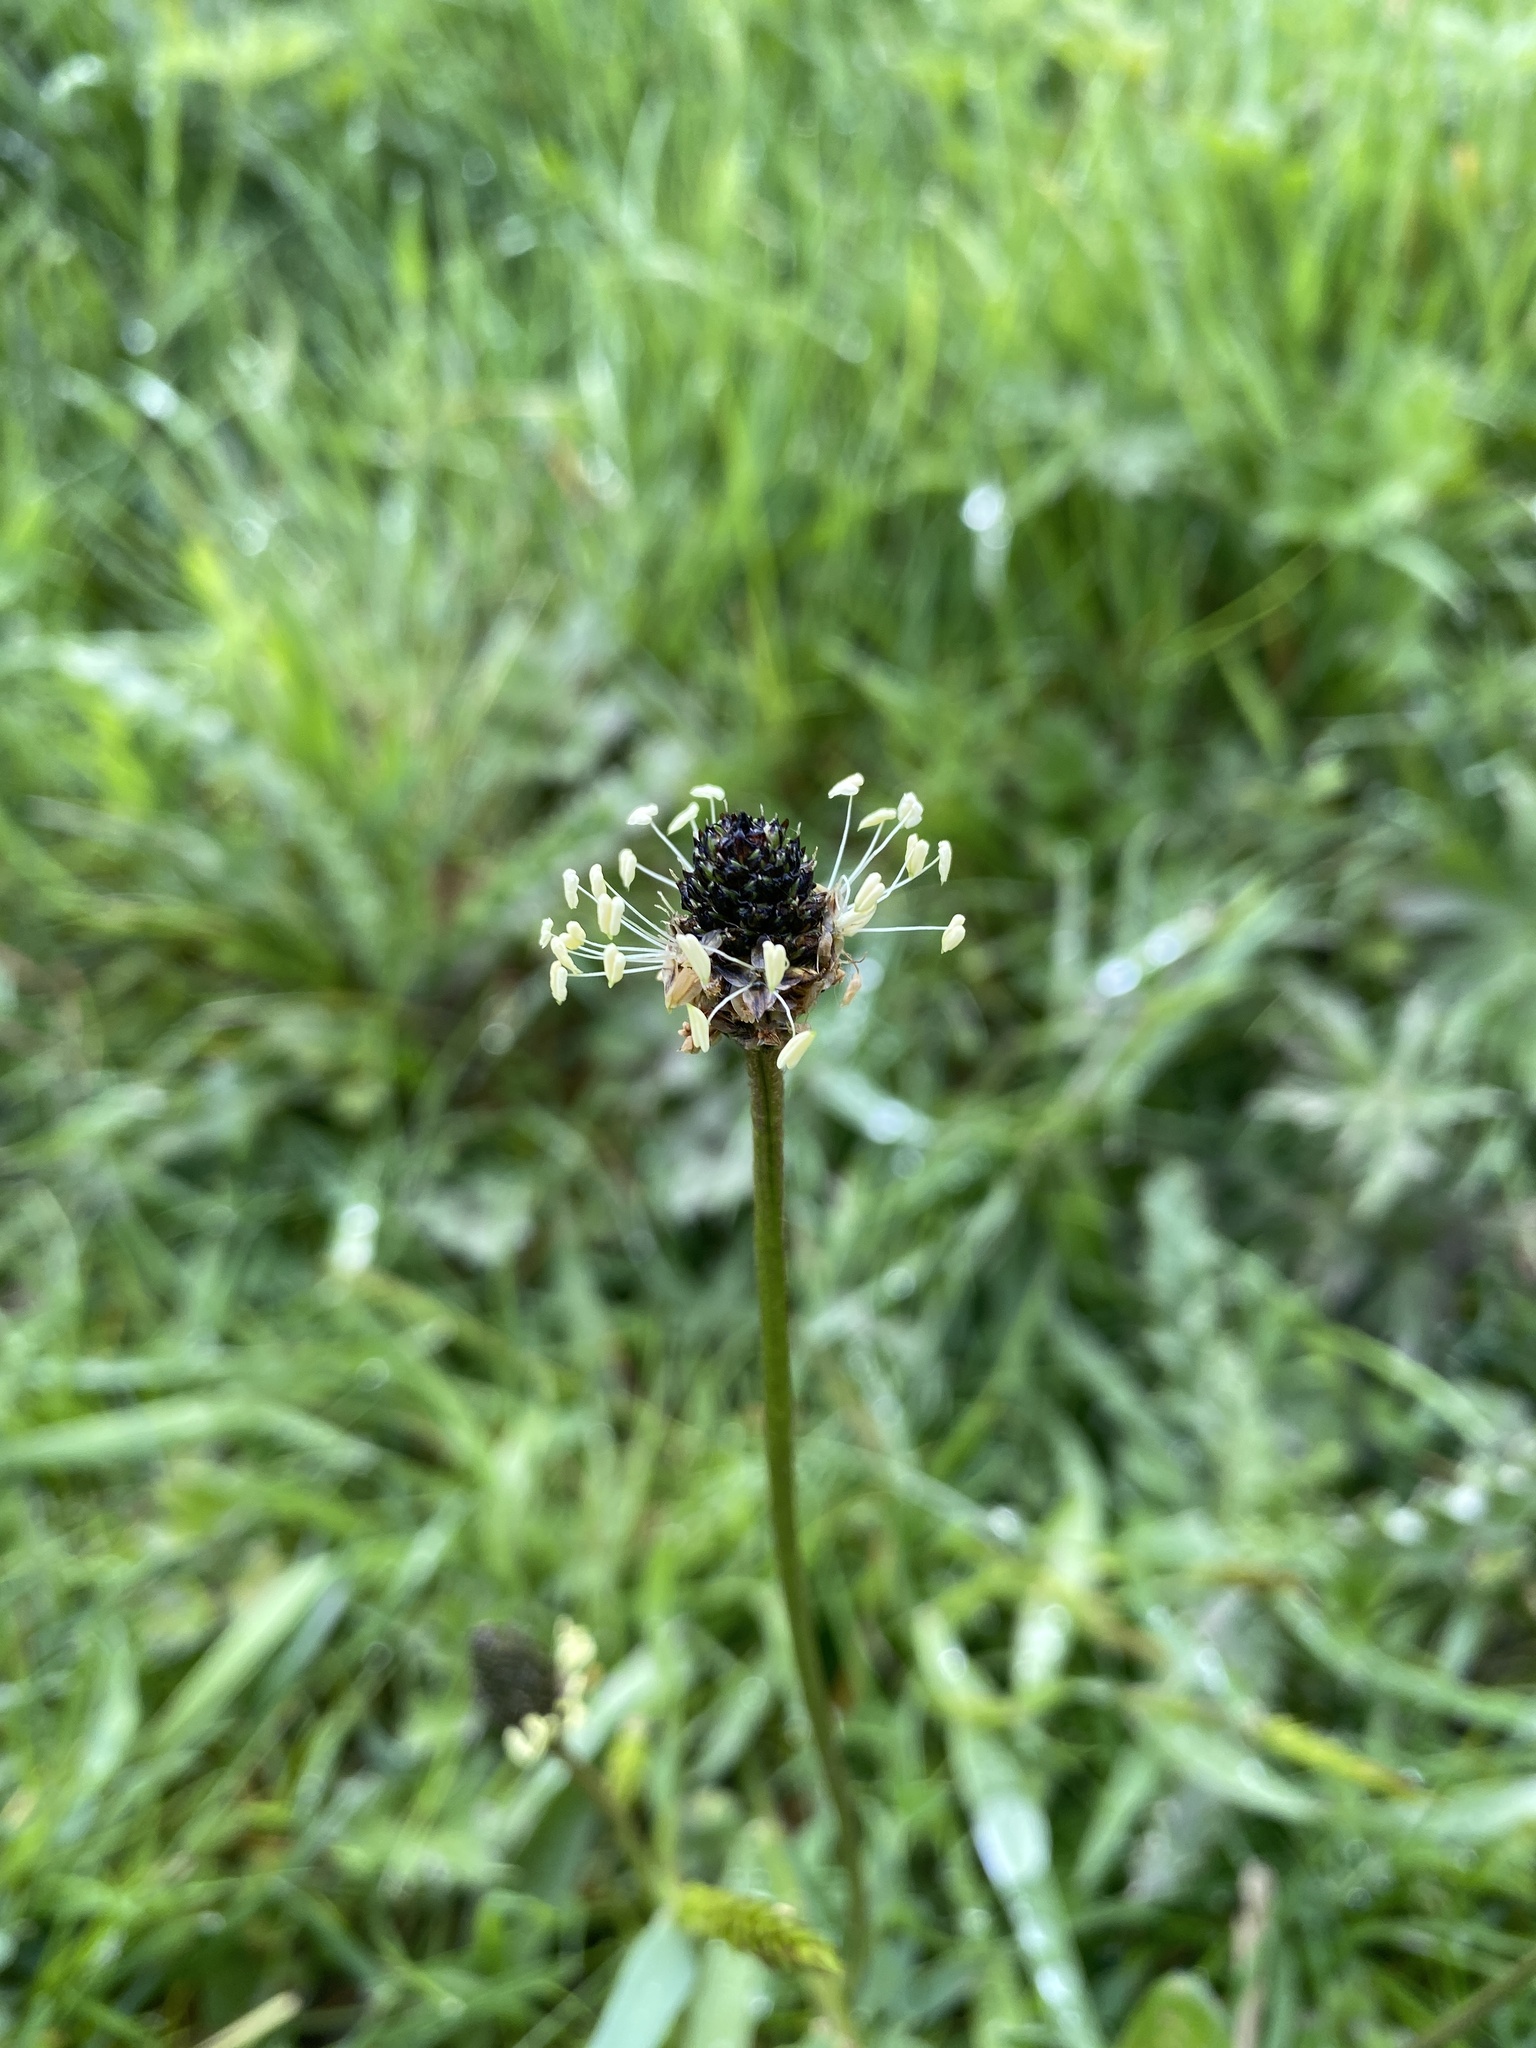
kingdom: Plantae
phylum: Tracheophyta
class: Magnoliopsida
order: Lamiales
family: Plantaginaceae
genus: Plantago
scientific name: Plantago lanceolata
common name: Ribwort plantain
